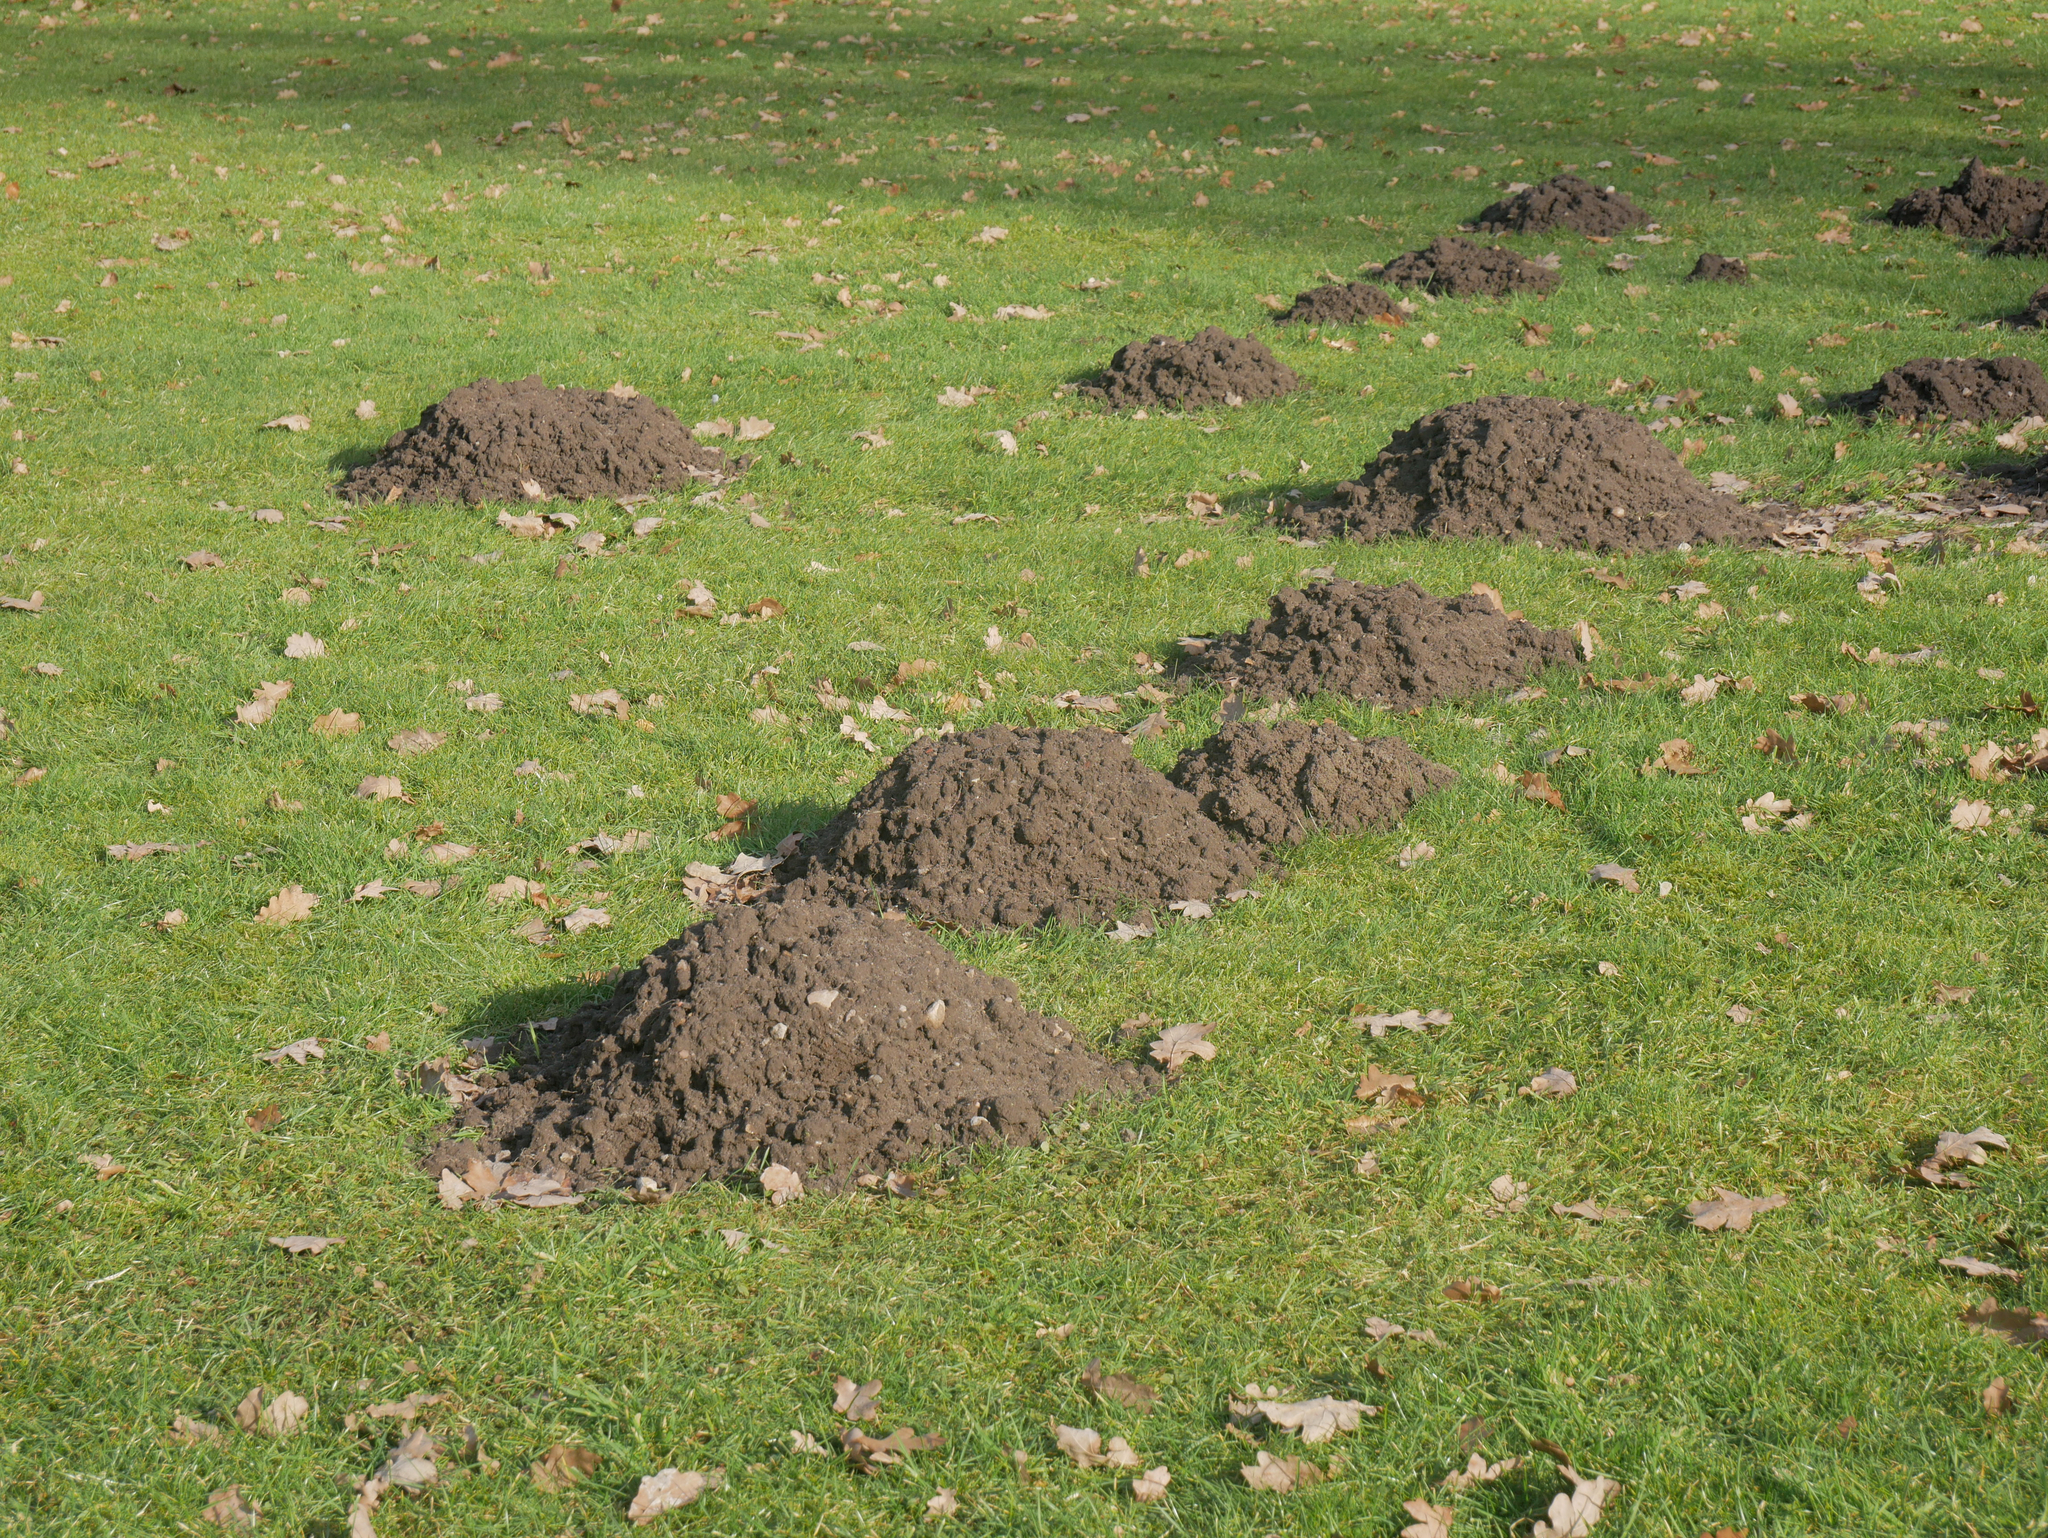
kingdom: Animalia
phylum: Chordata
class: Mammalia
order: Soricomorpha
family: Talpidae
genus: Talpa
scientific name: Talpa europaea
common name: European mole
